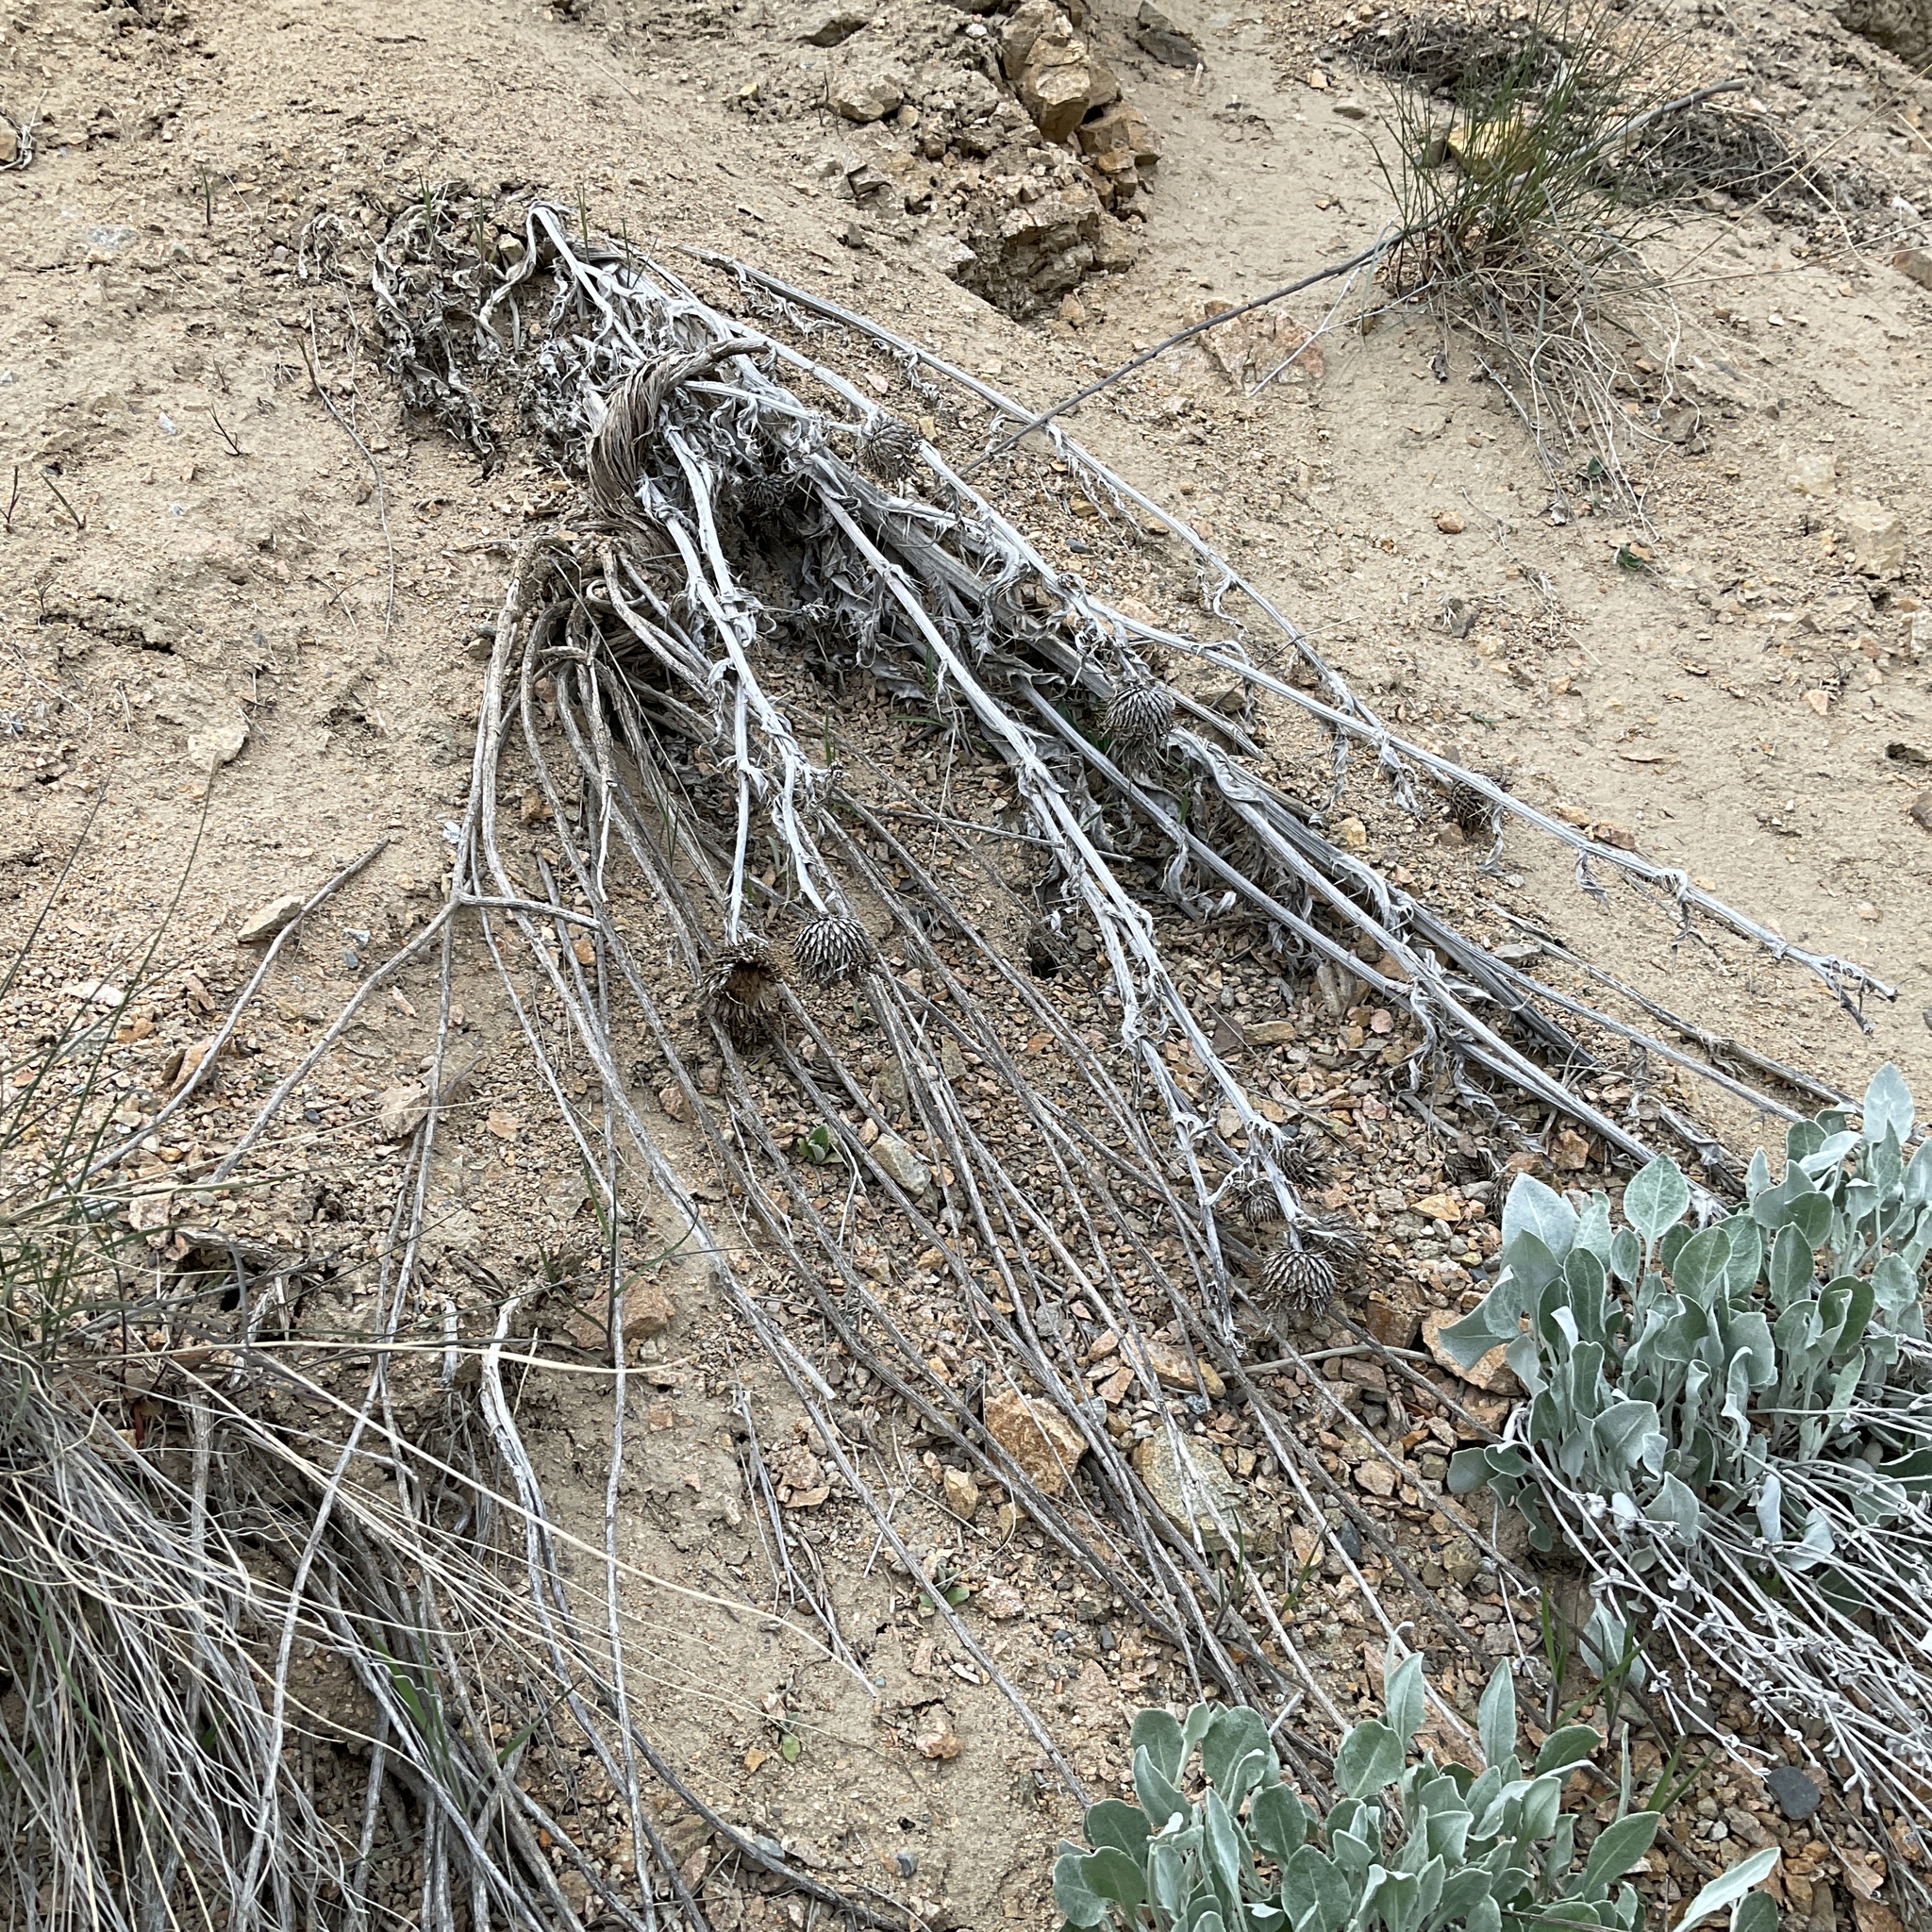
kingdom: Plantae
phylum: Tracheophyta
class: Magnoliopsida
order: Asterales
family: Asteraceae
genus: Cirsium
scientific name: Cirsium undulatum
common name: Pasture thistle
